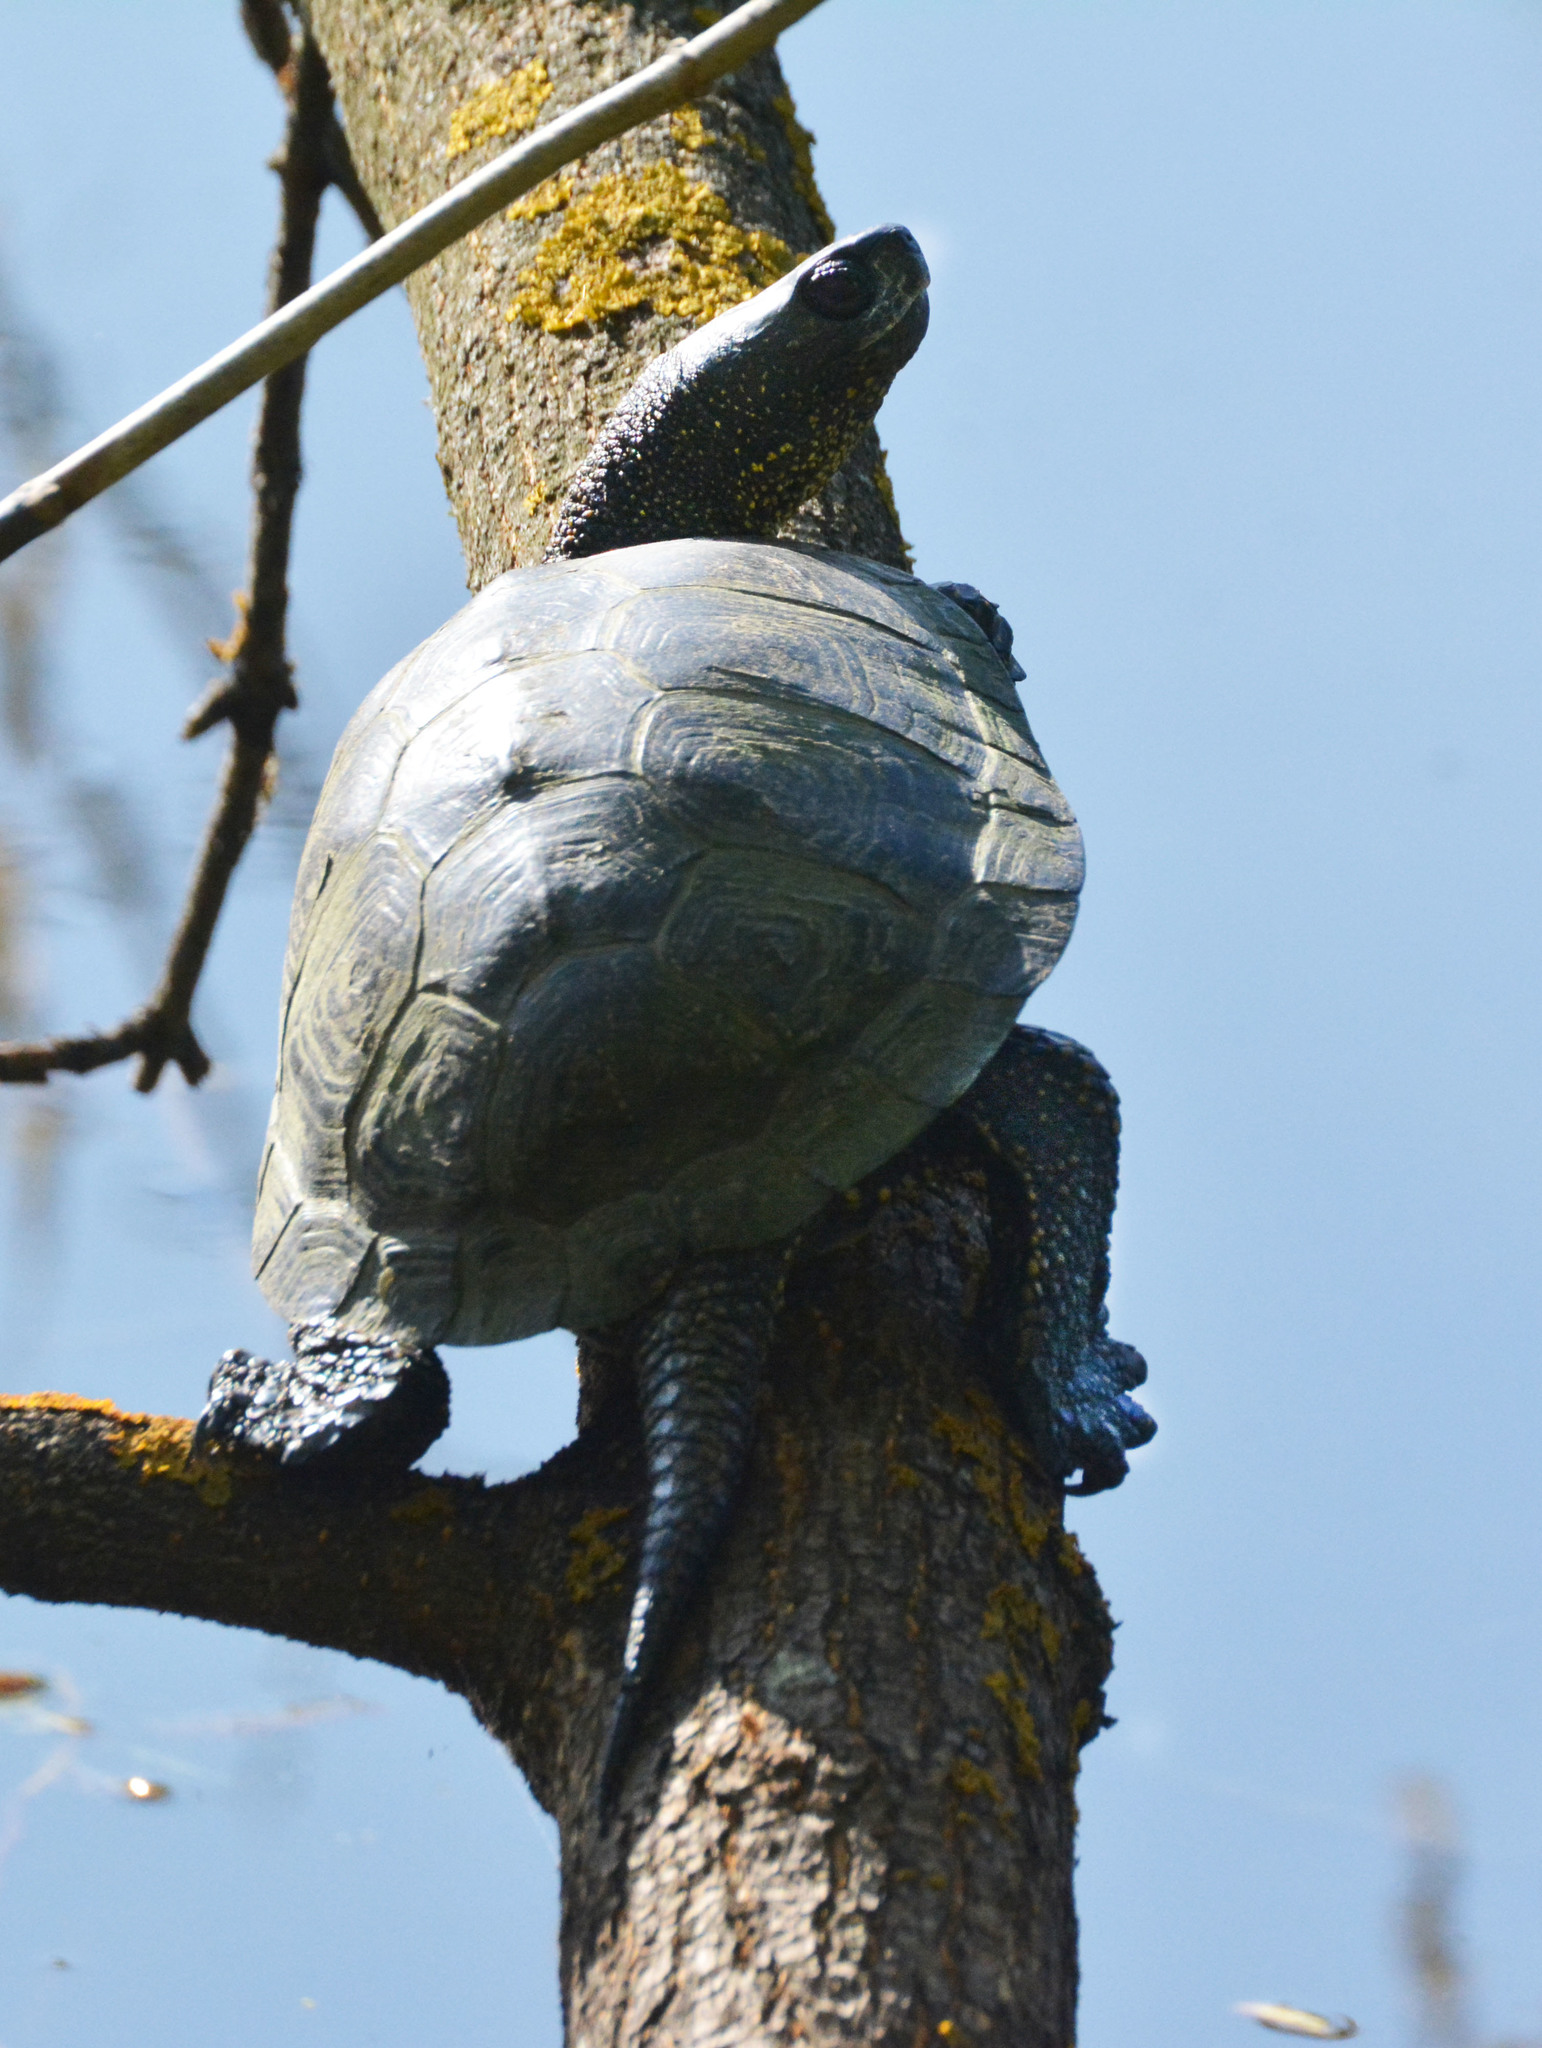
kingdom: Animalia
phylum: Chordata
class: Testudines
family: Emydidae
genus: Emys
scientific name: Emys orbicularis
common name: European pond turtle
